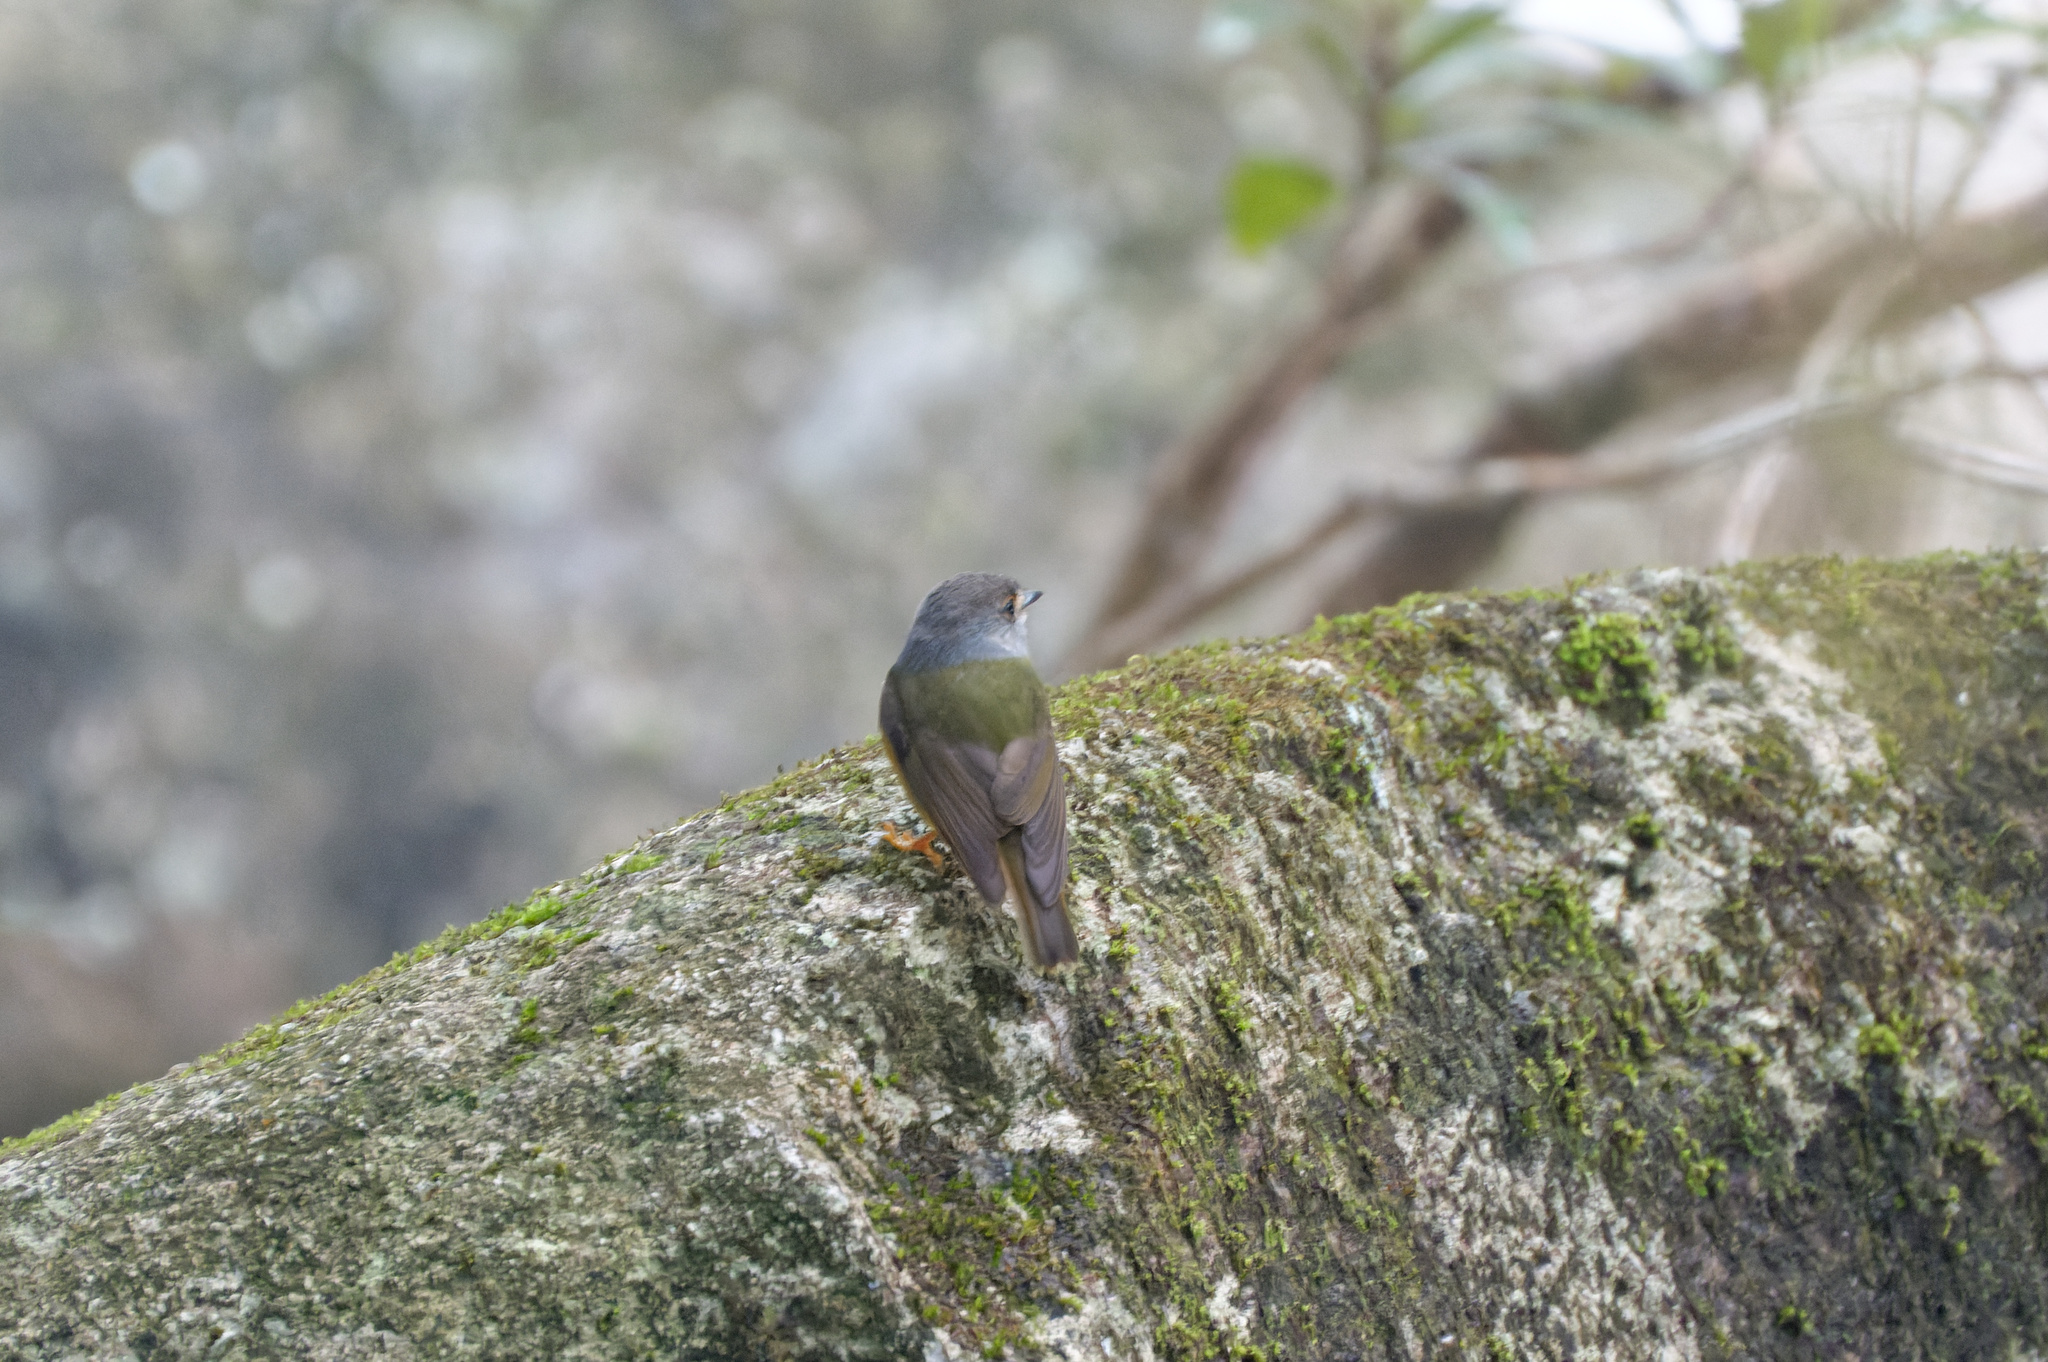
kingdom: Animalia
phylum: Chordata
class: Aves
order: Passeriformes
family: Petroicidae
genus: Eopsaltria
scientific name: Eopsaltria
